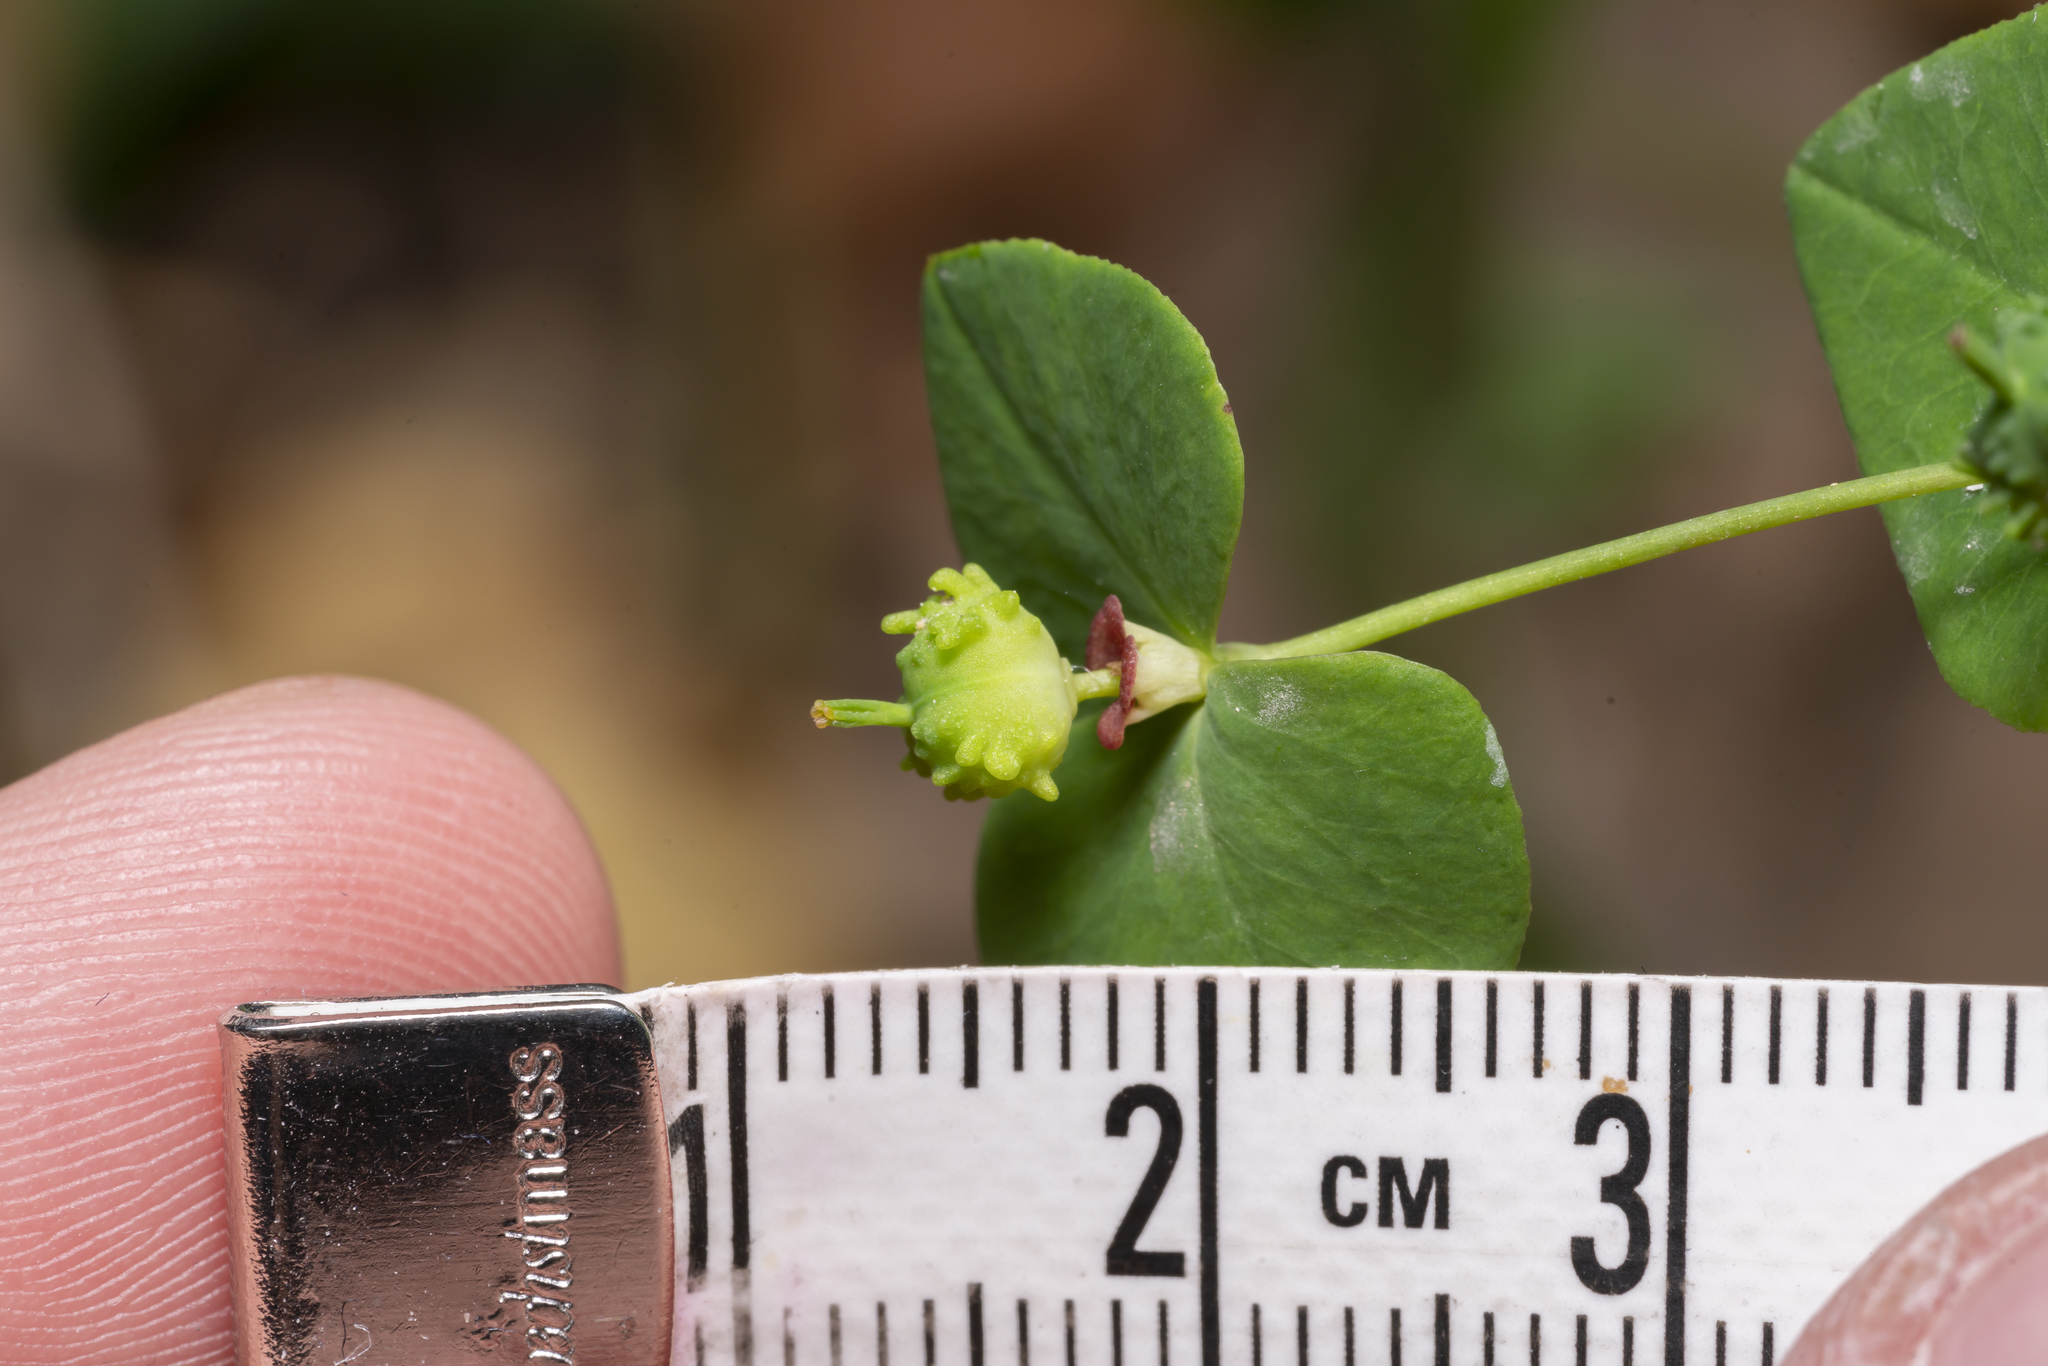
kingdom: Plantae
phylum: Tracheophyta
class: Magnoliopsida
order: Malpighiales
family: Euphorbiaceae
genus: Euphorbia
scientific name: Euphorbia dulcis
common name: Sweet spurge
